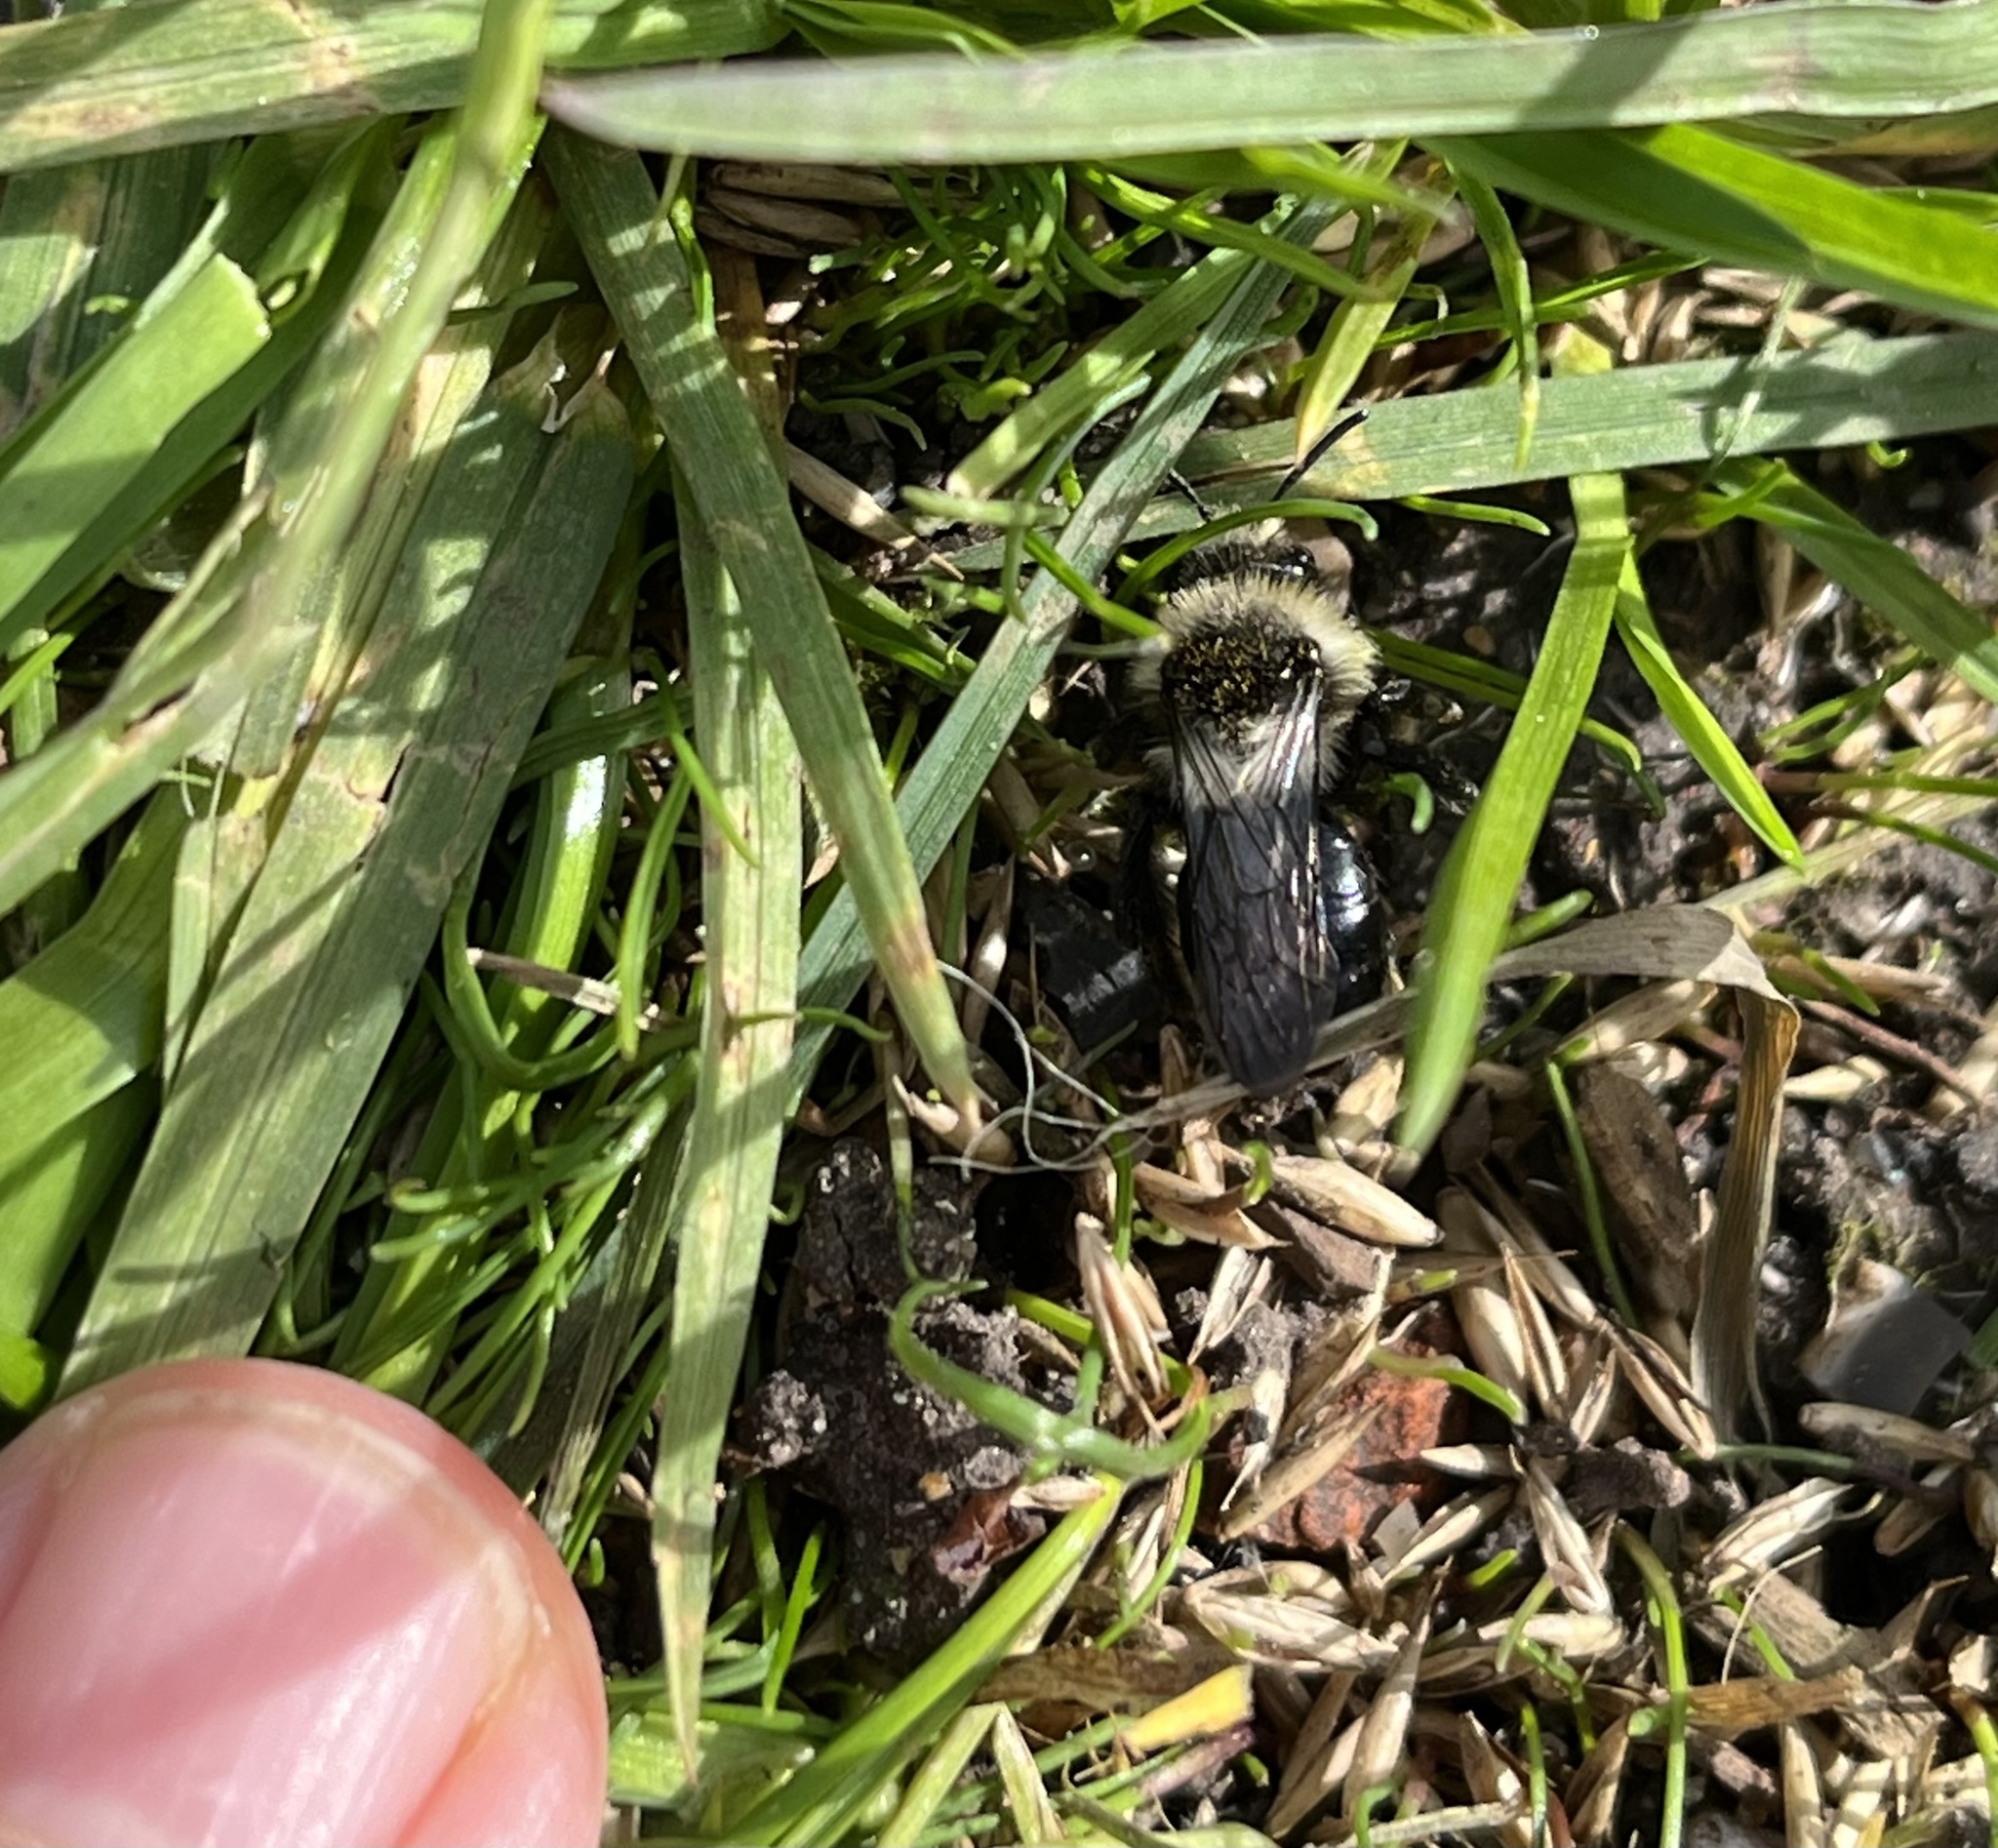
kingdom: Animalia
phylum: Arthropoda
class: Insecta
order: Hymenoptera
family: Andrenidae
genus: Andrena
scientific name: Andrena cineraria
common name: Ashy mining bee
